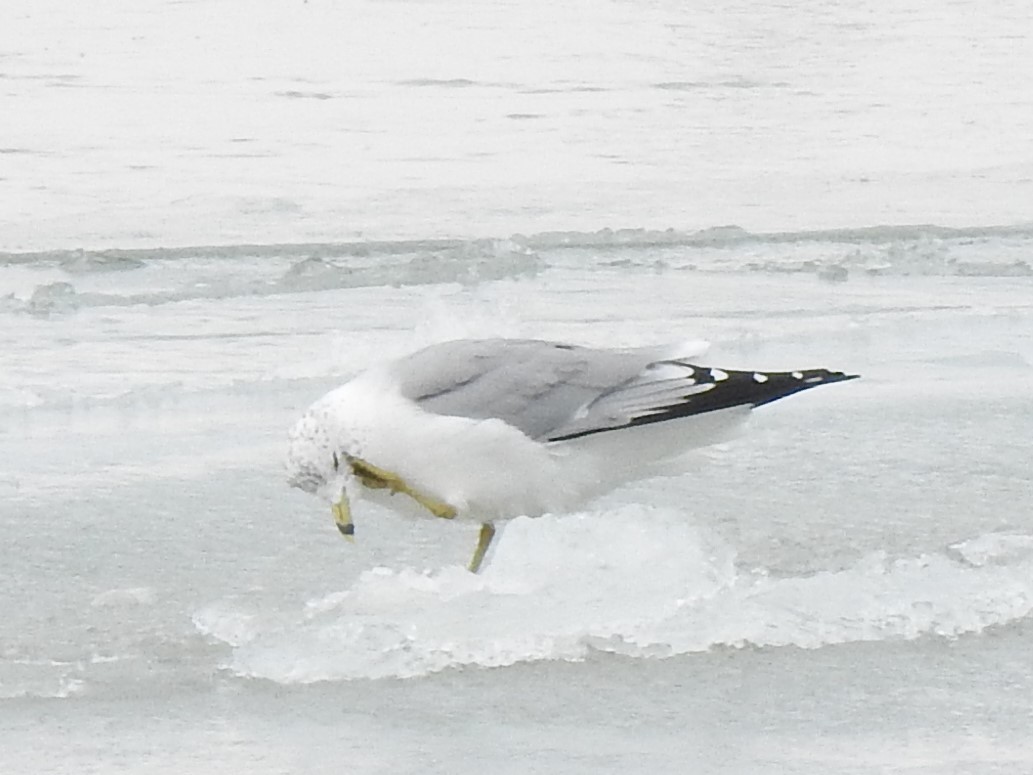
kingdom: Animalia
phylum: Chordata
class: Aves
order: Charadriiformes
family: Laridae
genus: Larus
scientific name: Larus delawarensis
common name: Ring-billed gull
